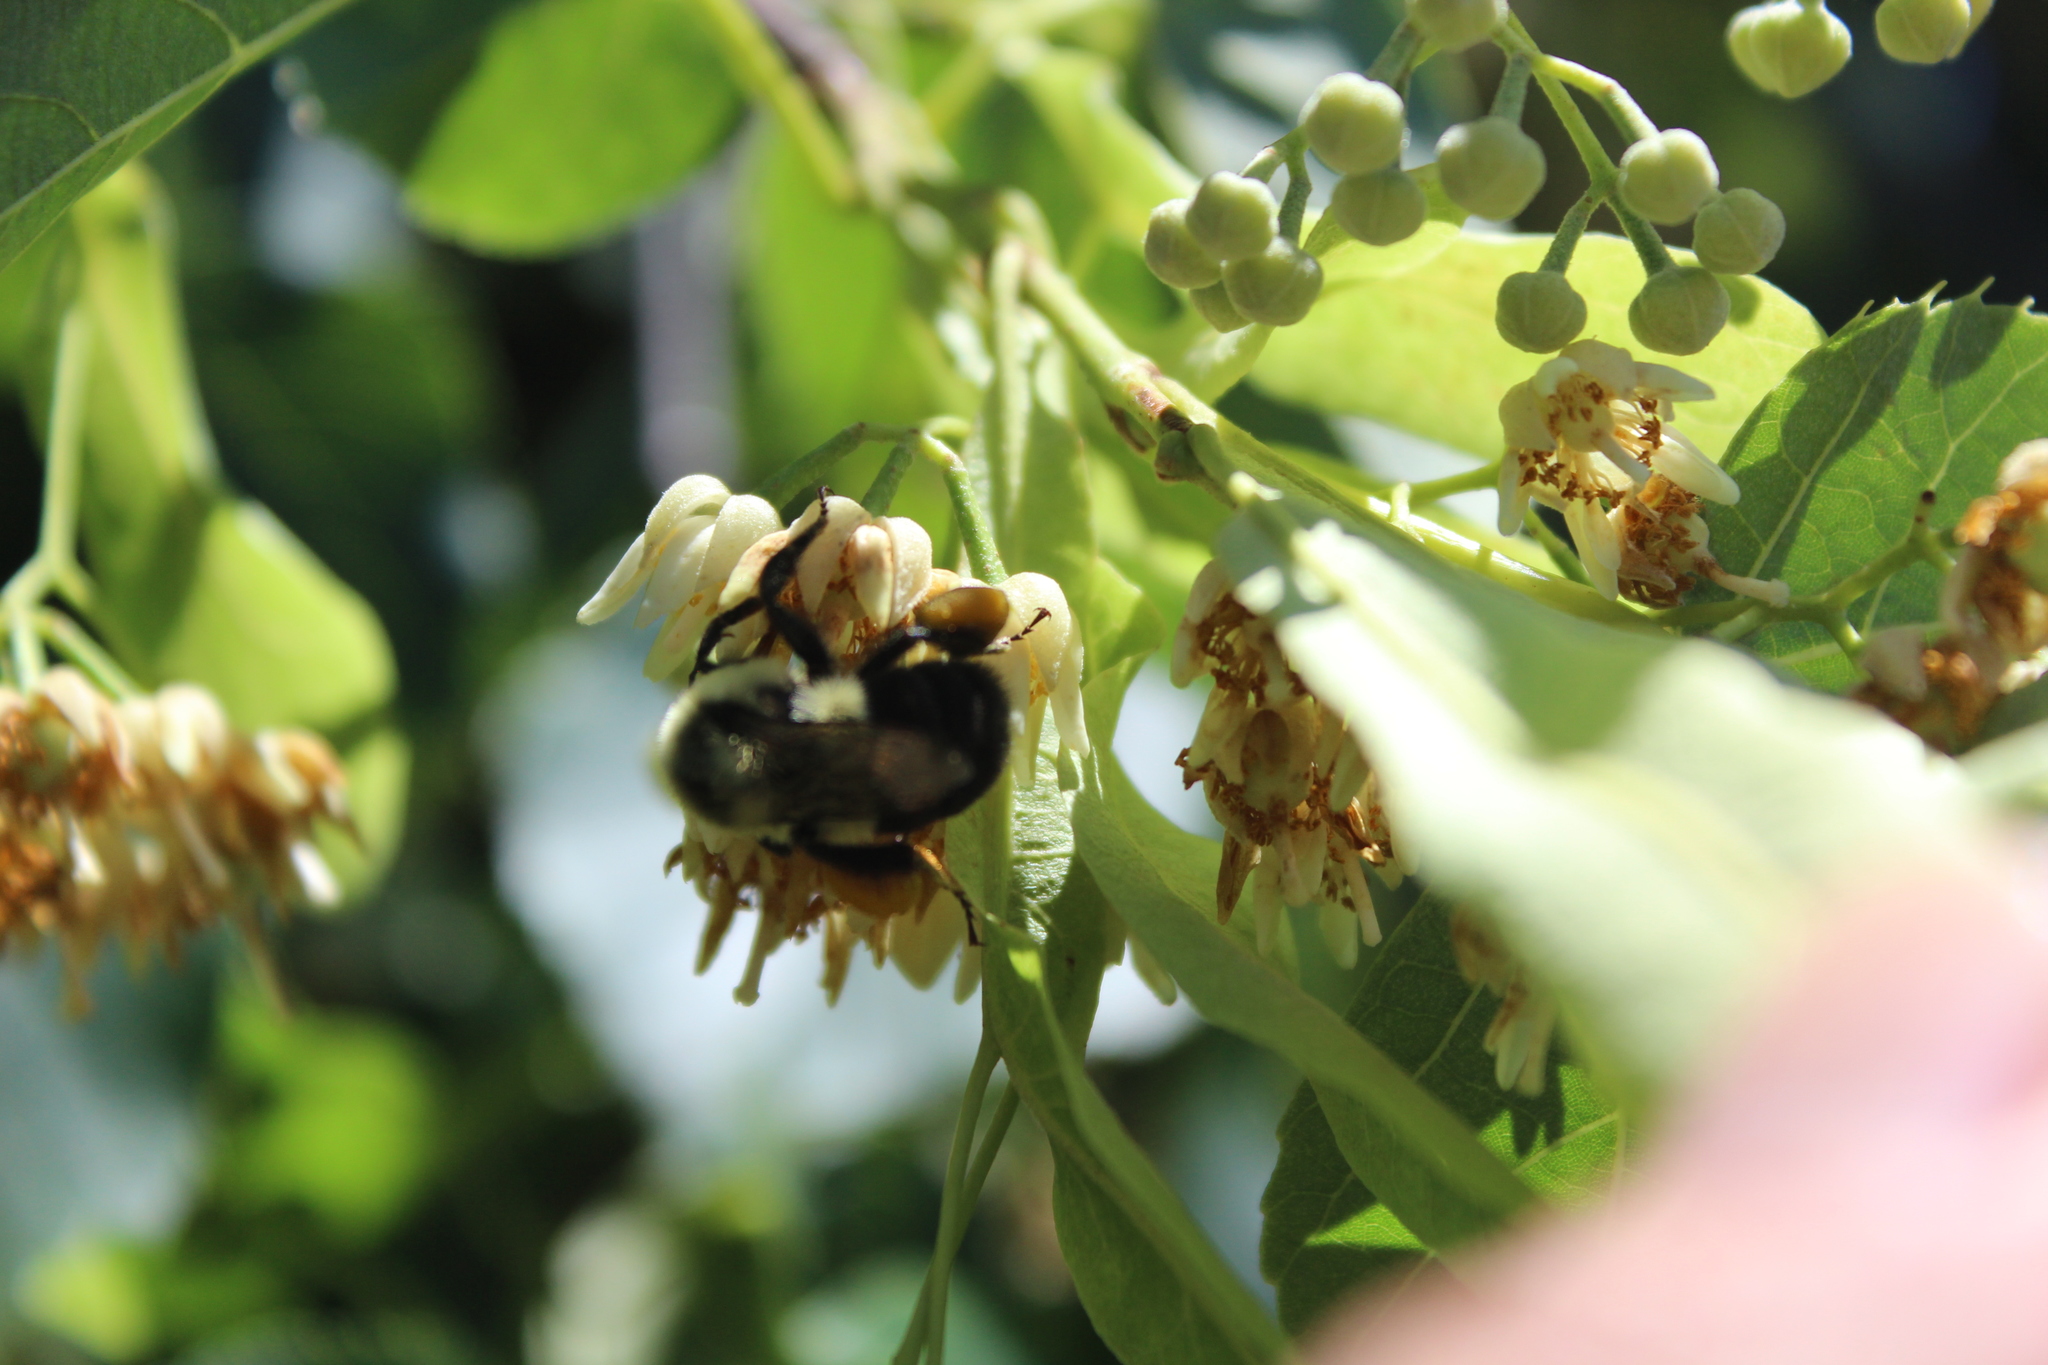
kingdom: Animalia
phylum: Arthropoda
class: Insecta
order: Hymenoptera
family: Apidae
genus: Bombus
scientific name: Bombus impatiens
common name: Common eastern bumble bee
